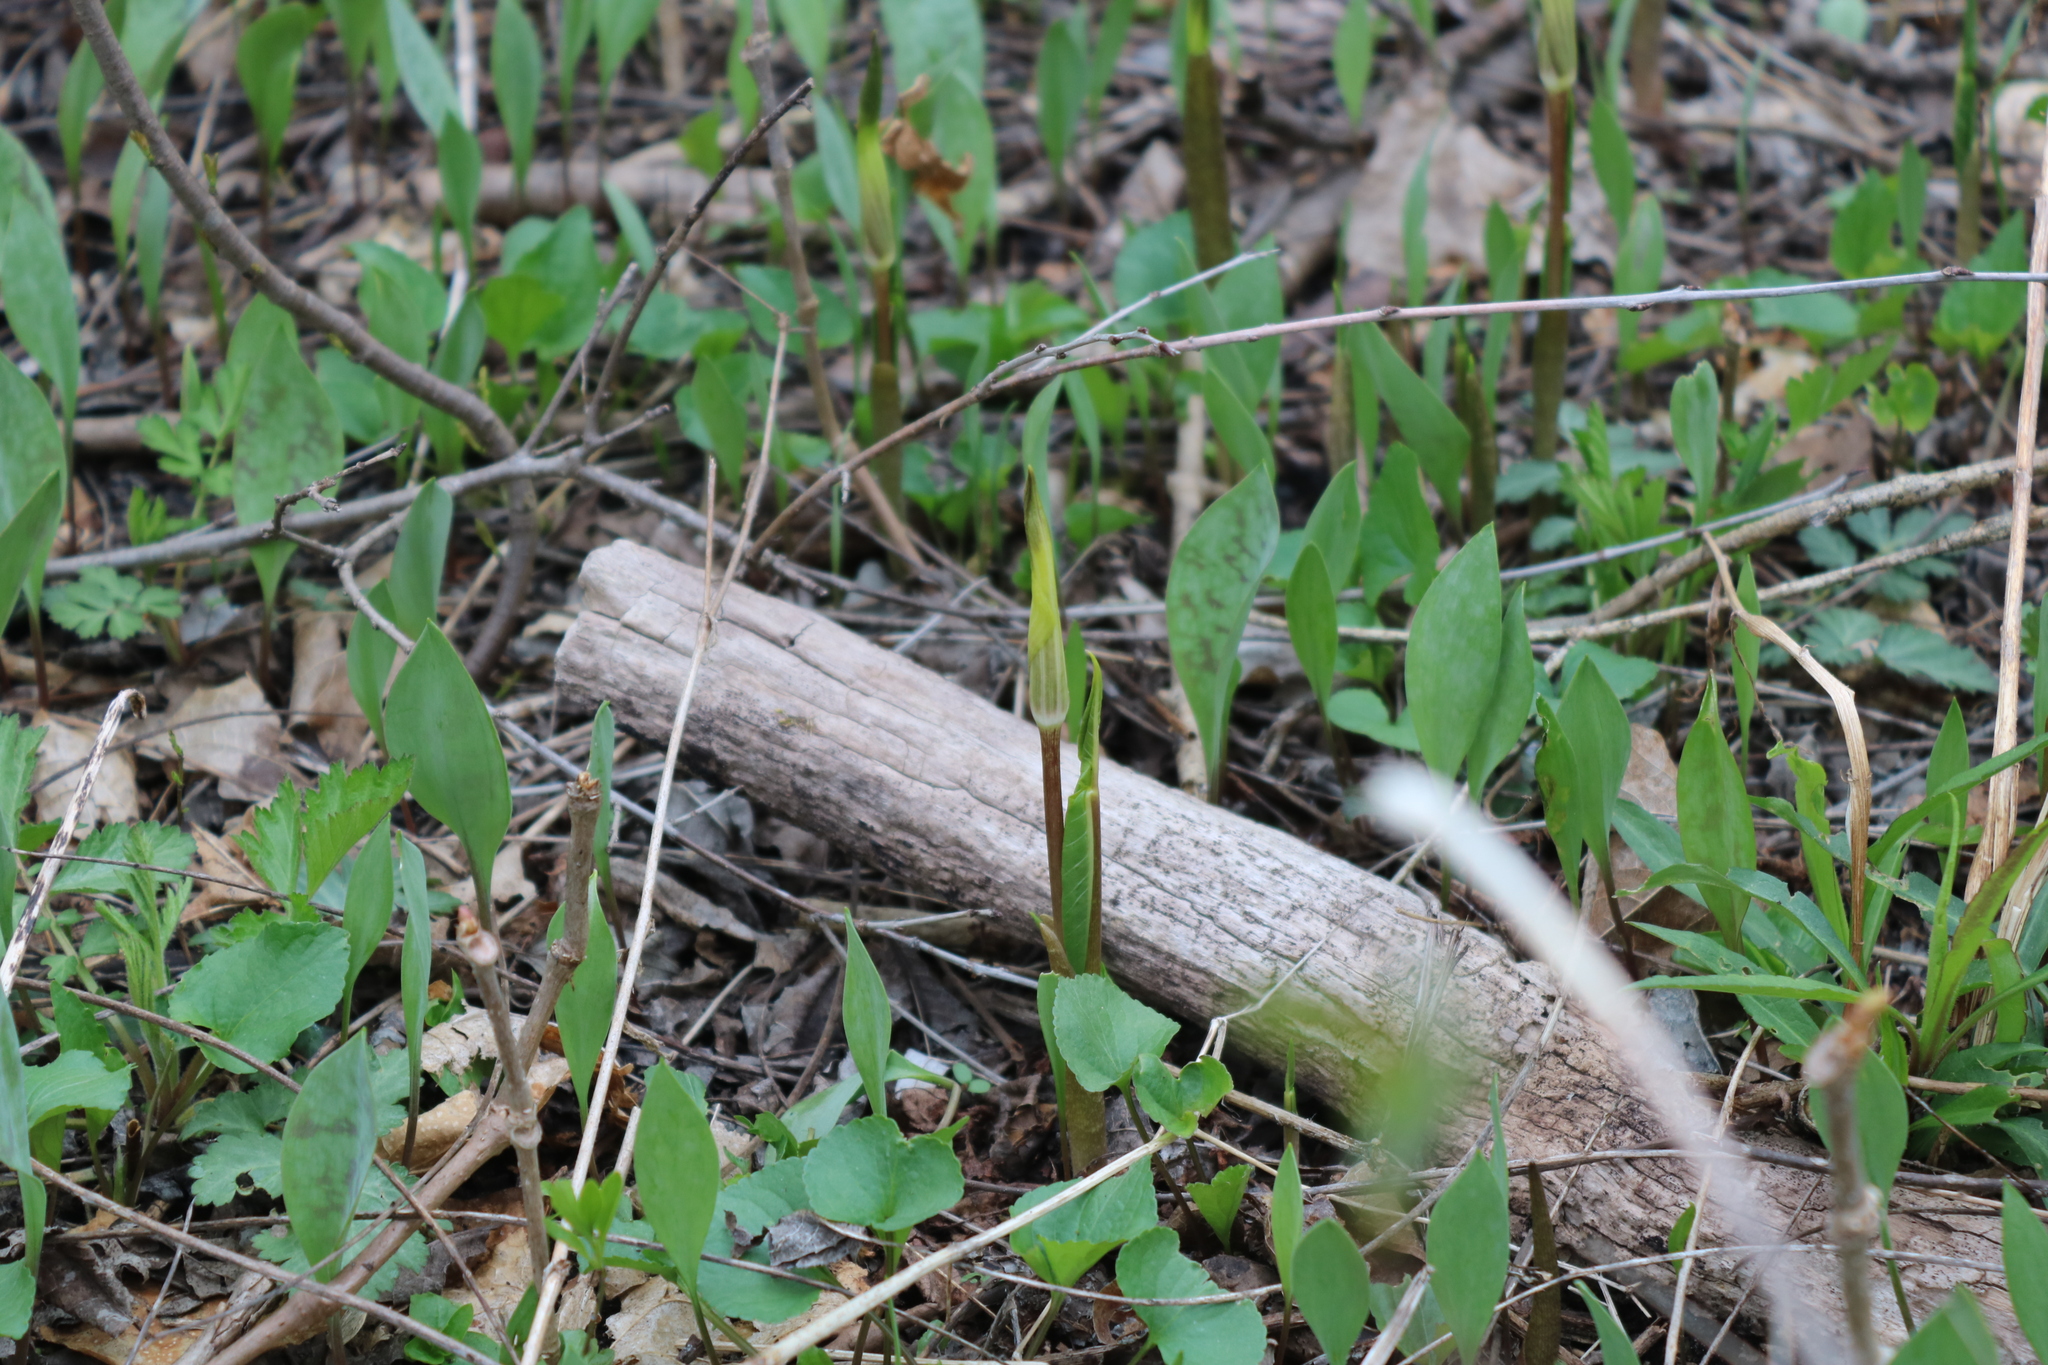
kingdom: Plantae
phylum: Tracheophyta
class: Liliopsida
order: Alismatales
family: Araceae
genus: Arisaema
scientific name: Arisaema triphyllum
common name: Jack-in-the-pulpit
